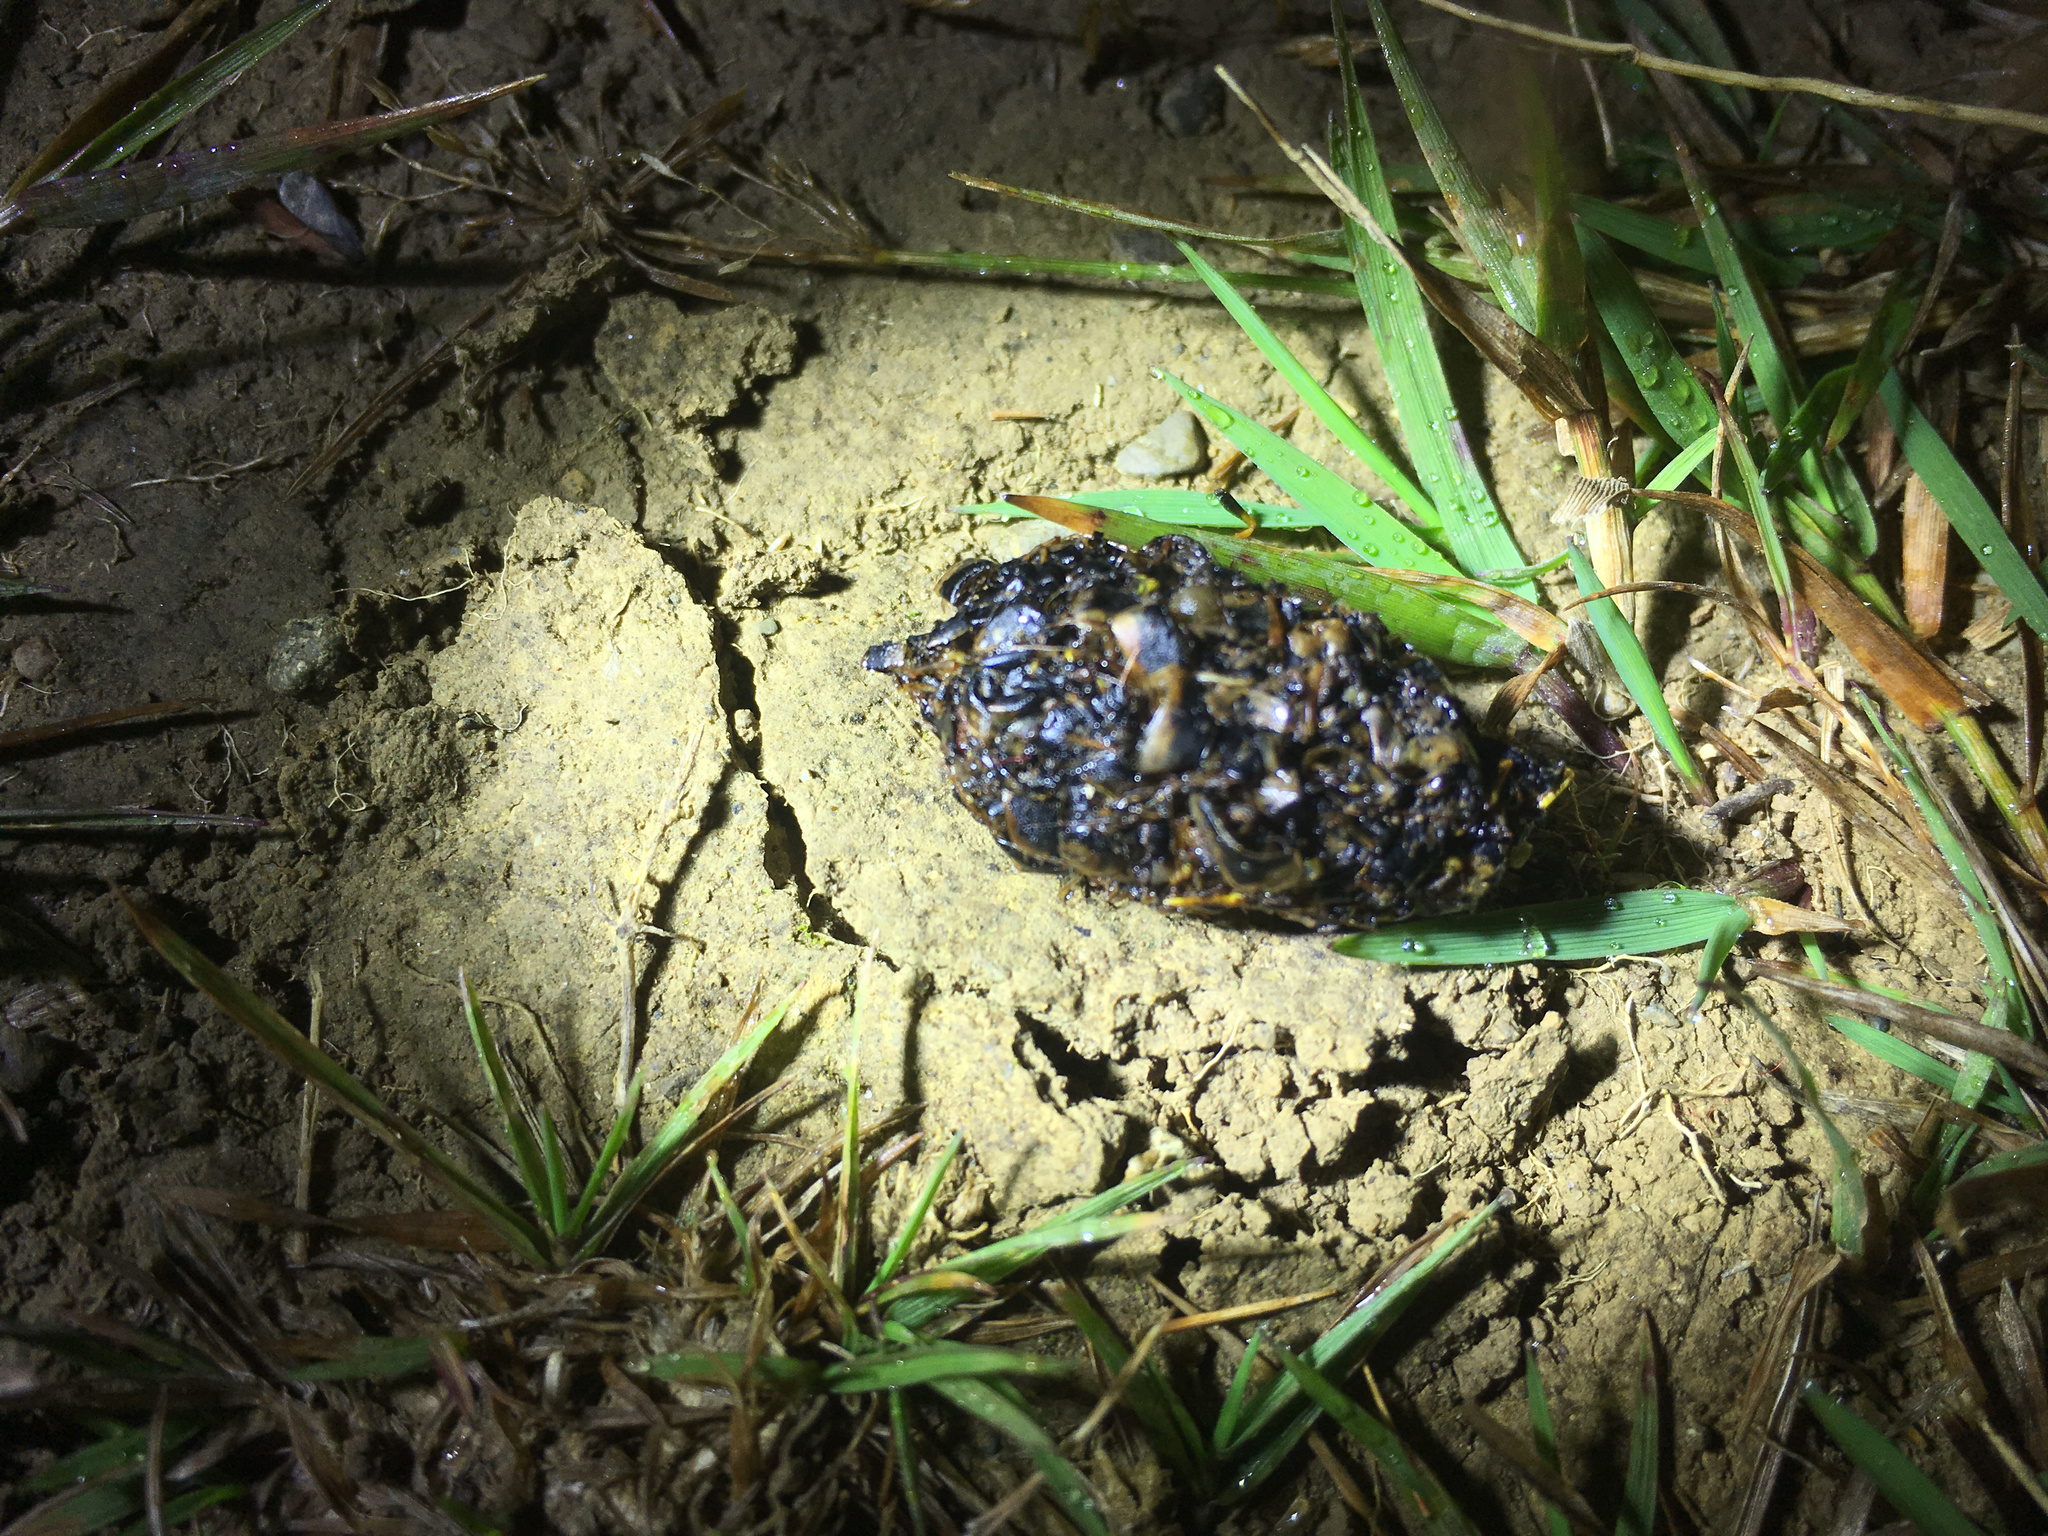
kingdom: Animalia
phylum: Chordata
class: Mammalia
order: Erinaceomorpha
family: Erinaceidae
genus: Erinaceus
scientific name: Erinaceus europaeus
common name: West european hedgehog
